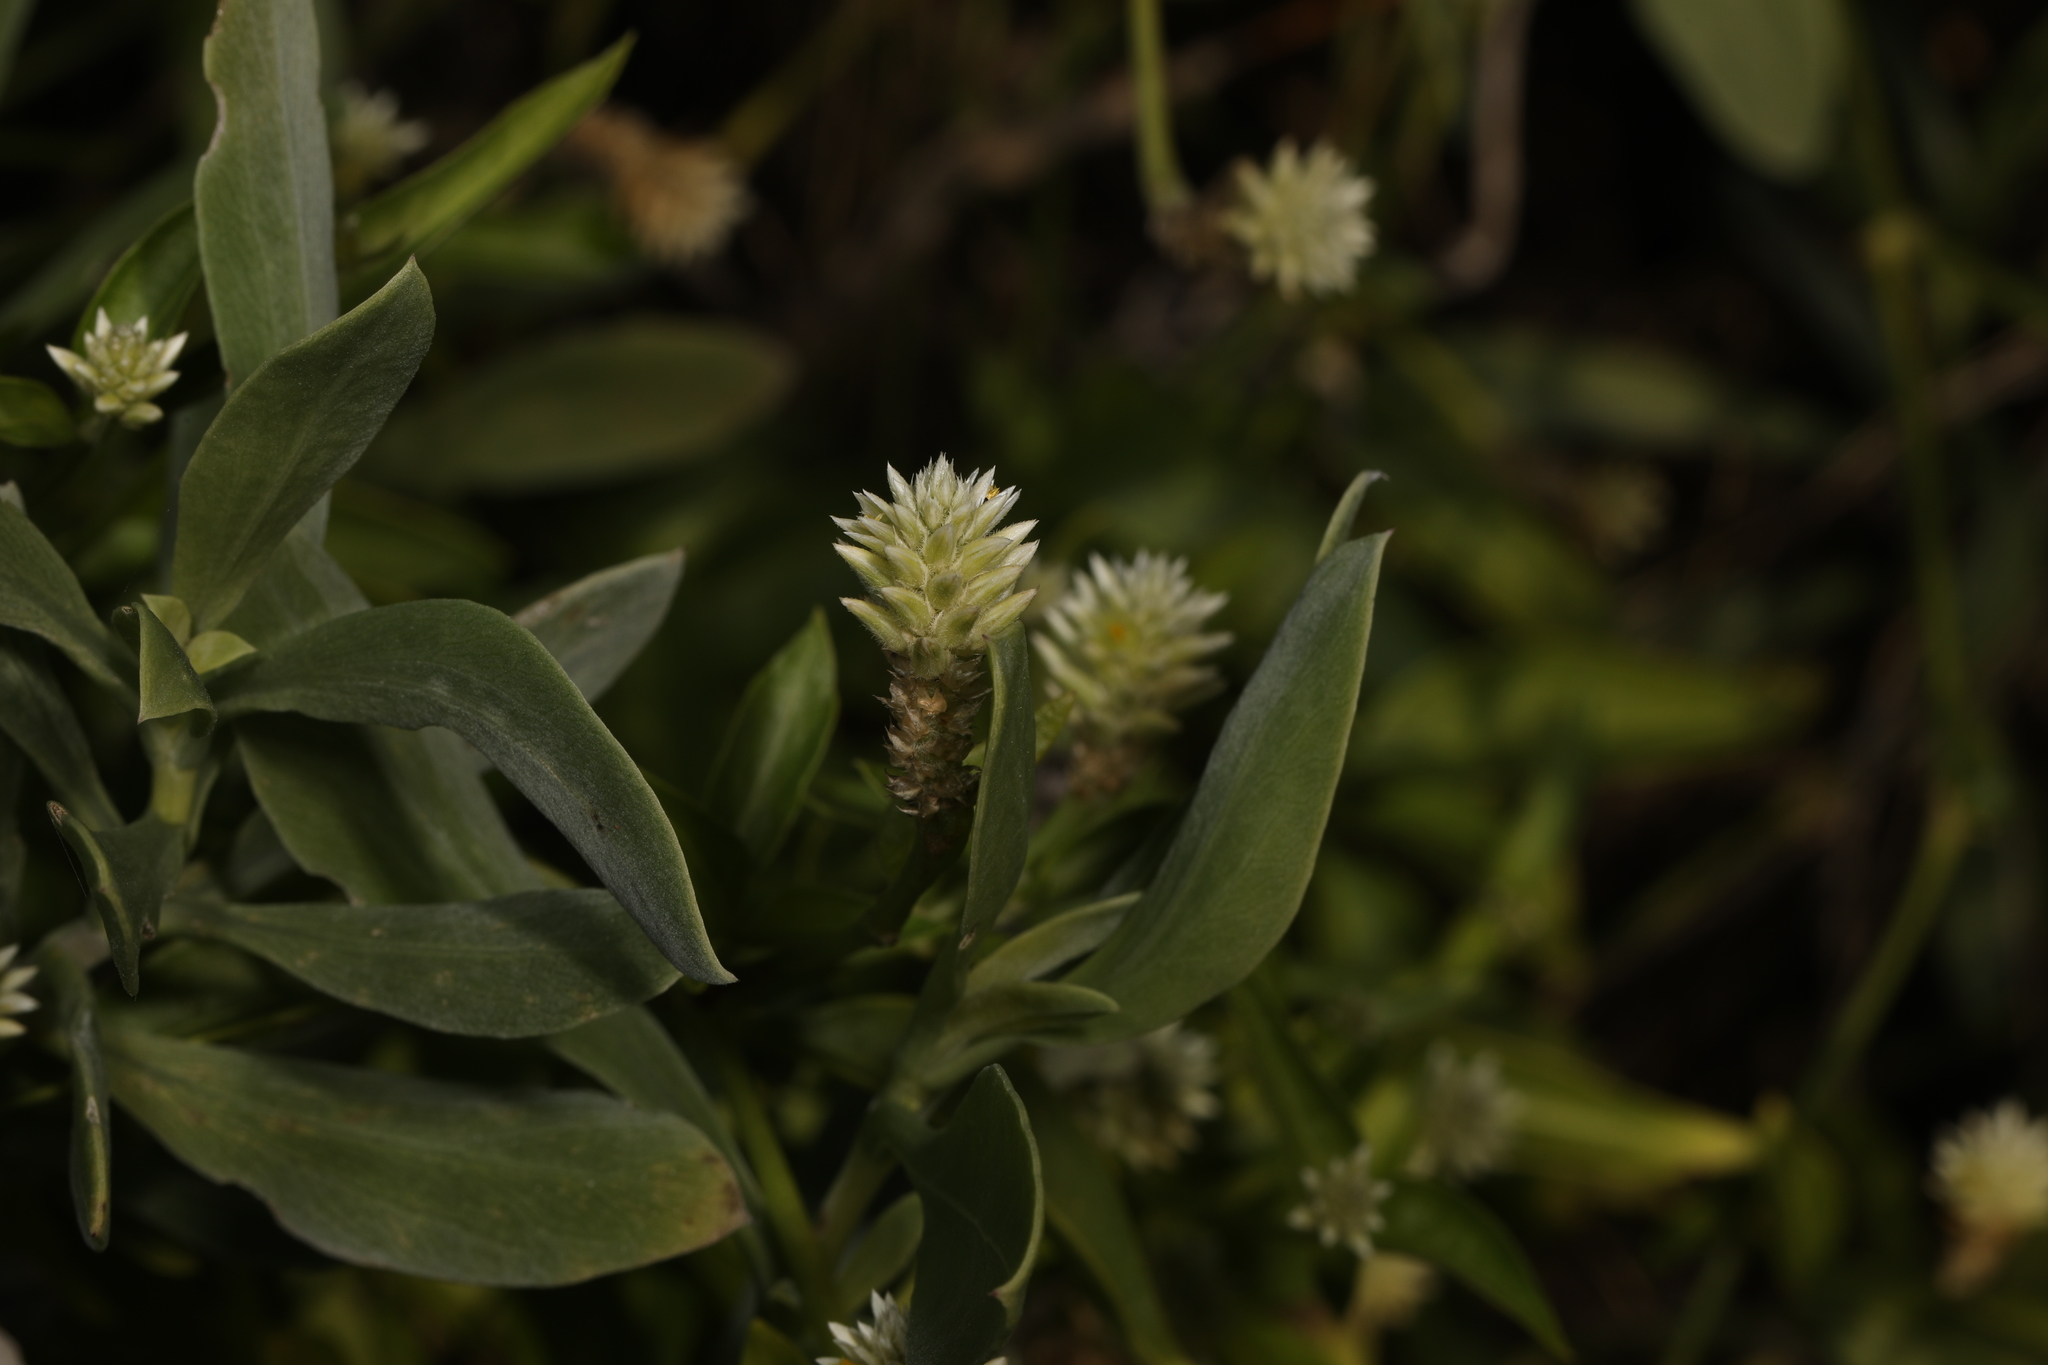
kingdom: Plantae
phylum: Tracheophyta
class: Magnoliopsida
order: Caryophyllales
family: Amaranthaceae
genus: Gomphrena
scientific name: Gomphrena serrata
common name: Arrasa con todo
